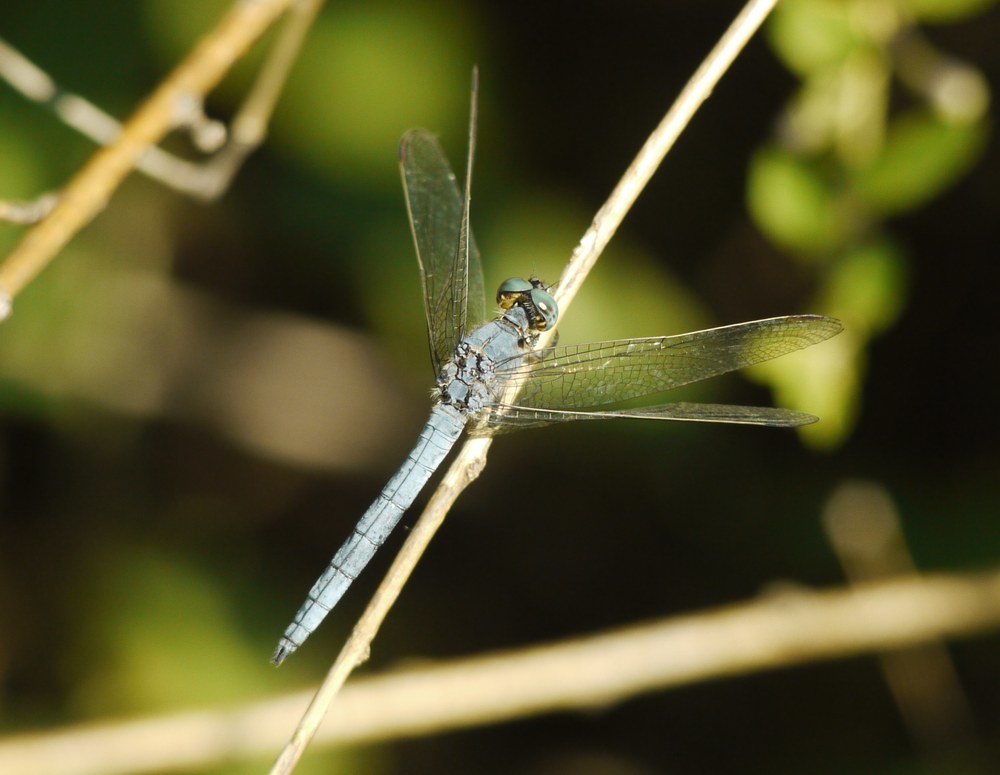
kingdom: Animalia
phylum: Arthropoda
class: Insecta
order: Odonata
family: Libellulidae
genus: Orthetrum
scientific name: Orthetrum coerulescens
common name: Keeled skimmer
